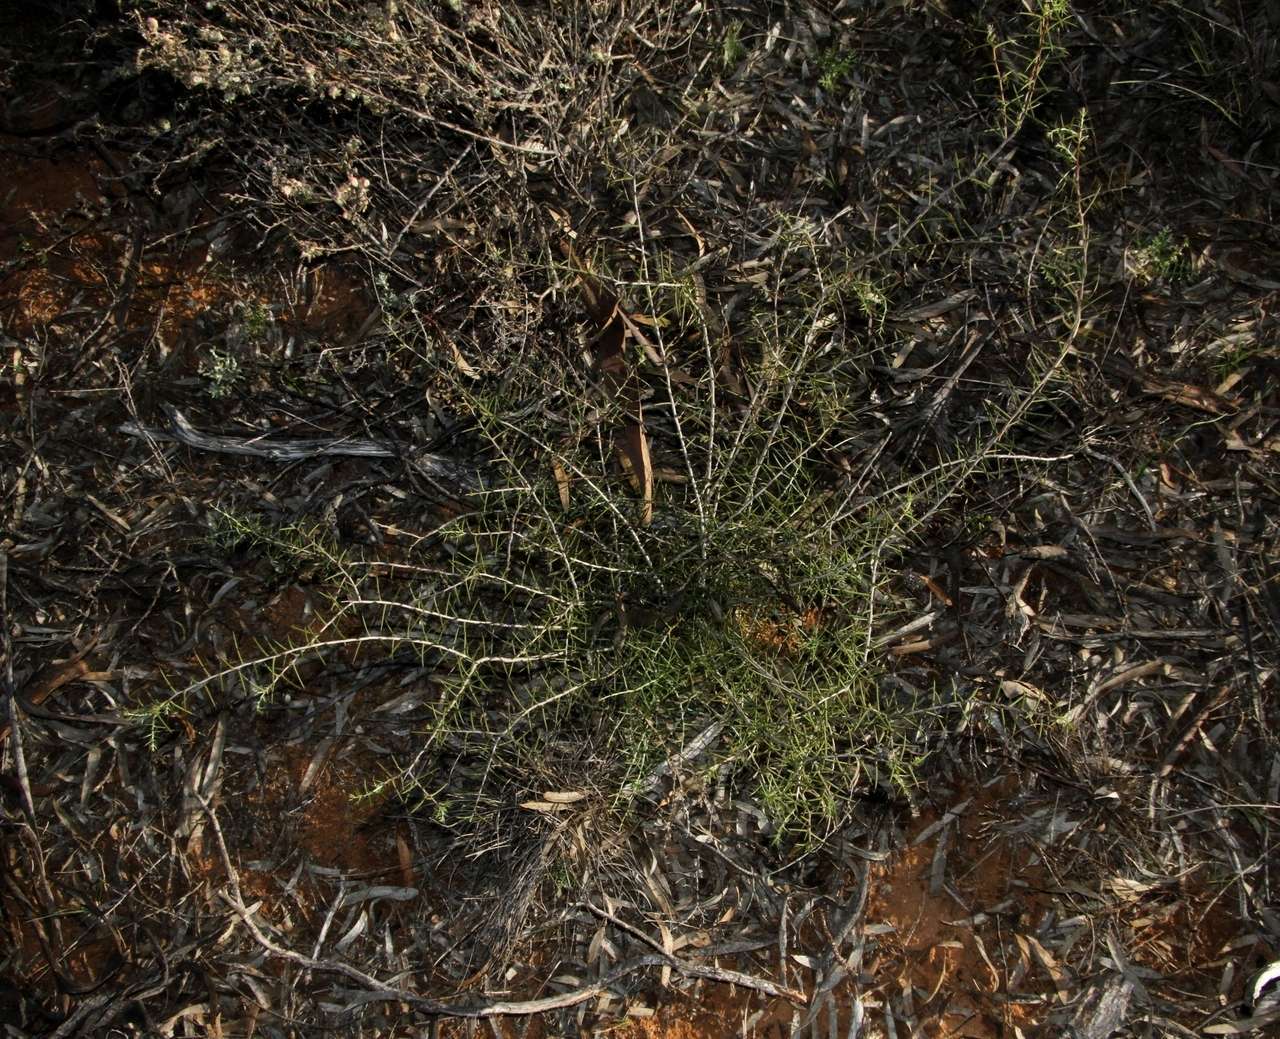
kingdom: Plantae
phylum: Tracheophyta
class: Magnoliopsida
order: Fabales
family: Fabaceae
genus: Acacia
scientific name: Acacia nyssophylla
